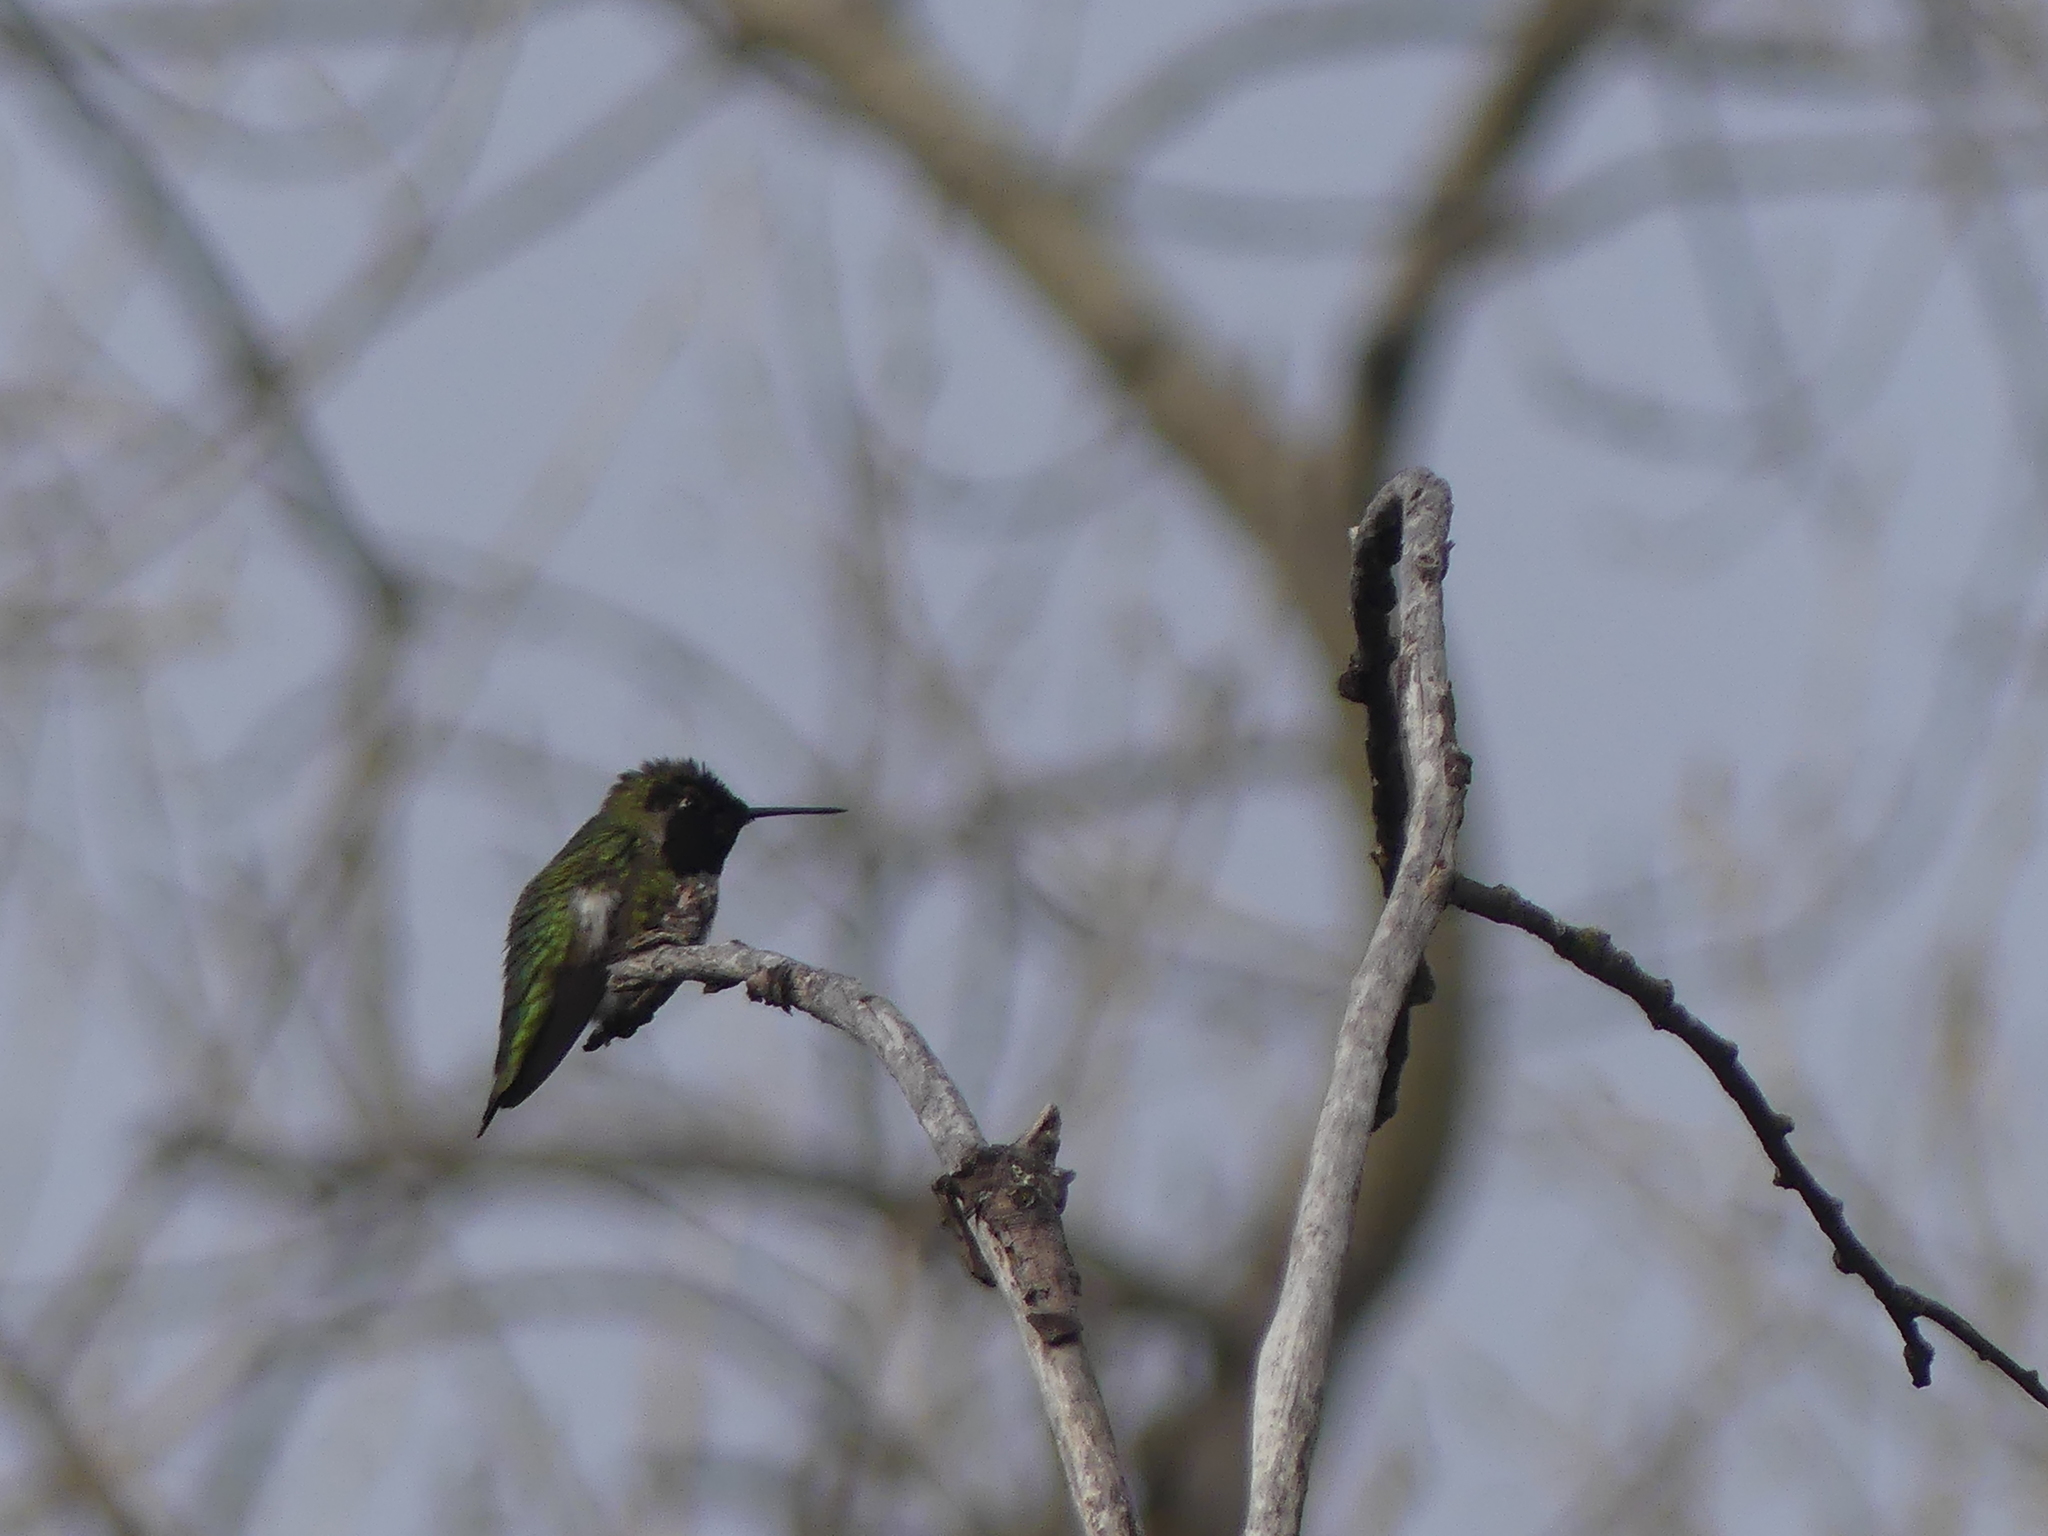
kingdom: Animalia
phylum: Chordata
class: Aves
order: Apodiformes
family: Trochilidae
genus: Calypte
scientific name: Calypte anna
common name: Anna's hummingbird
